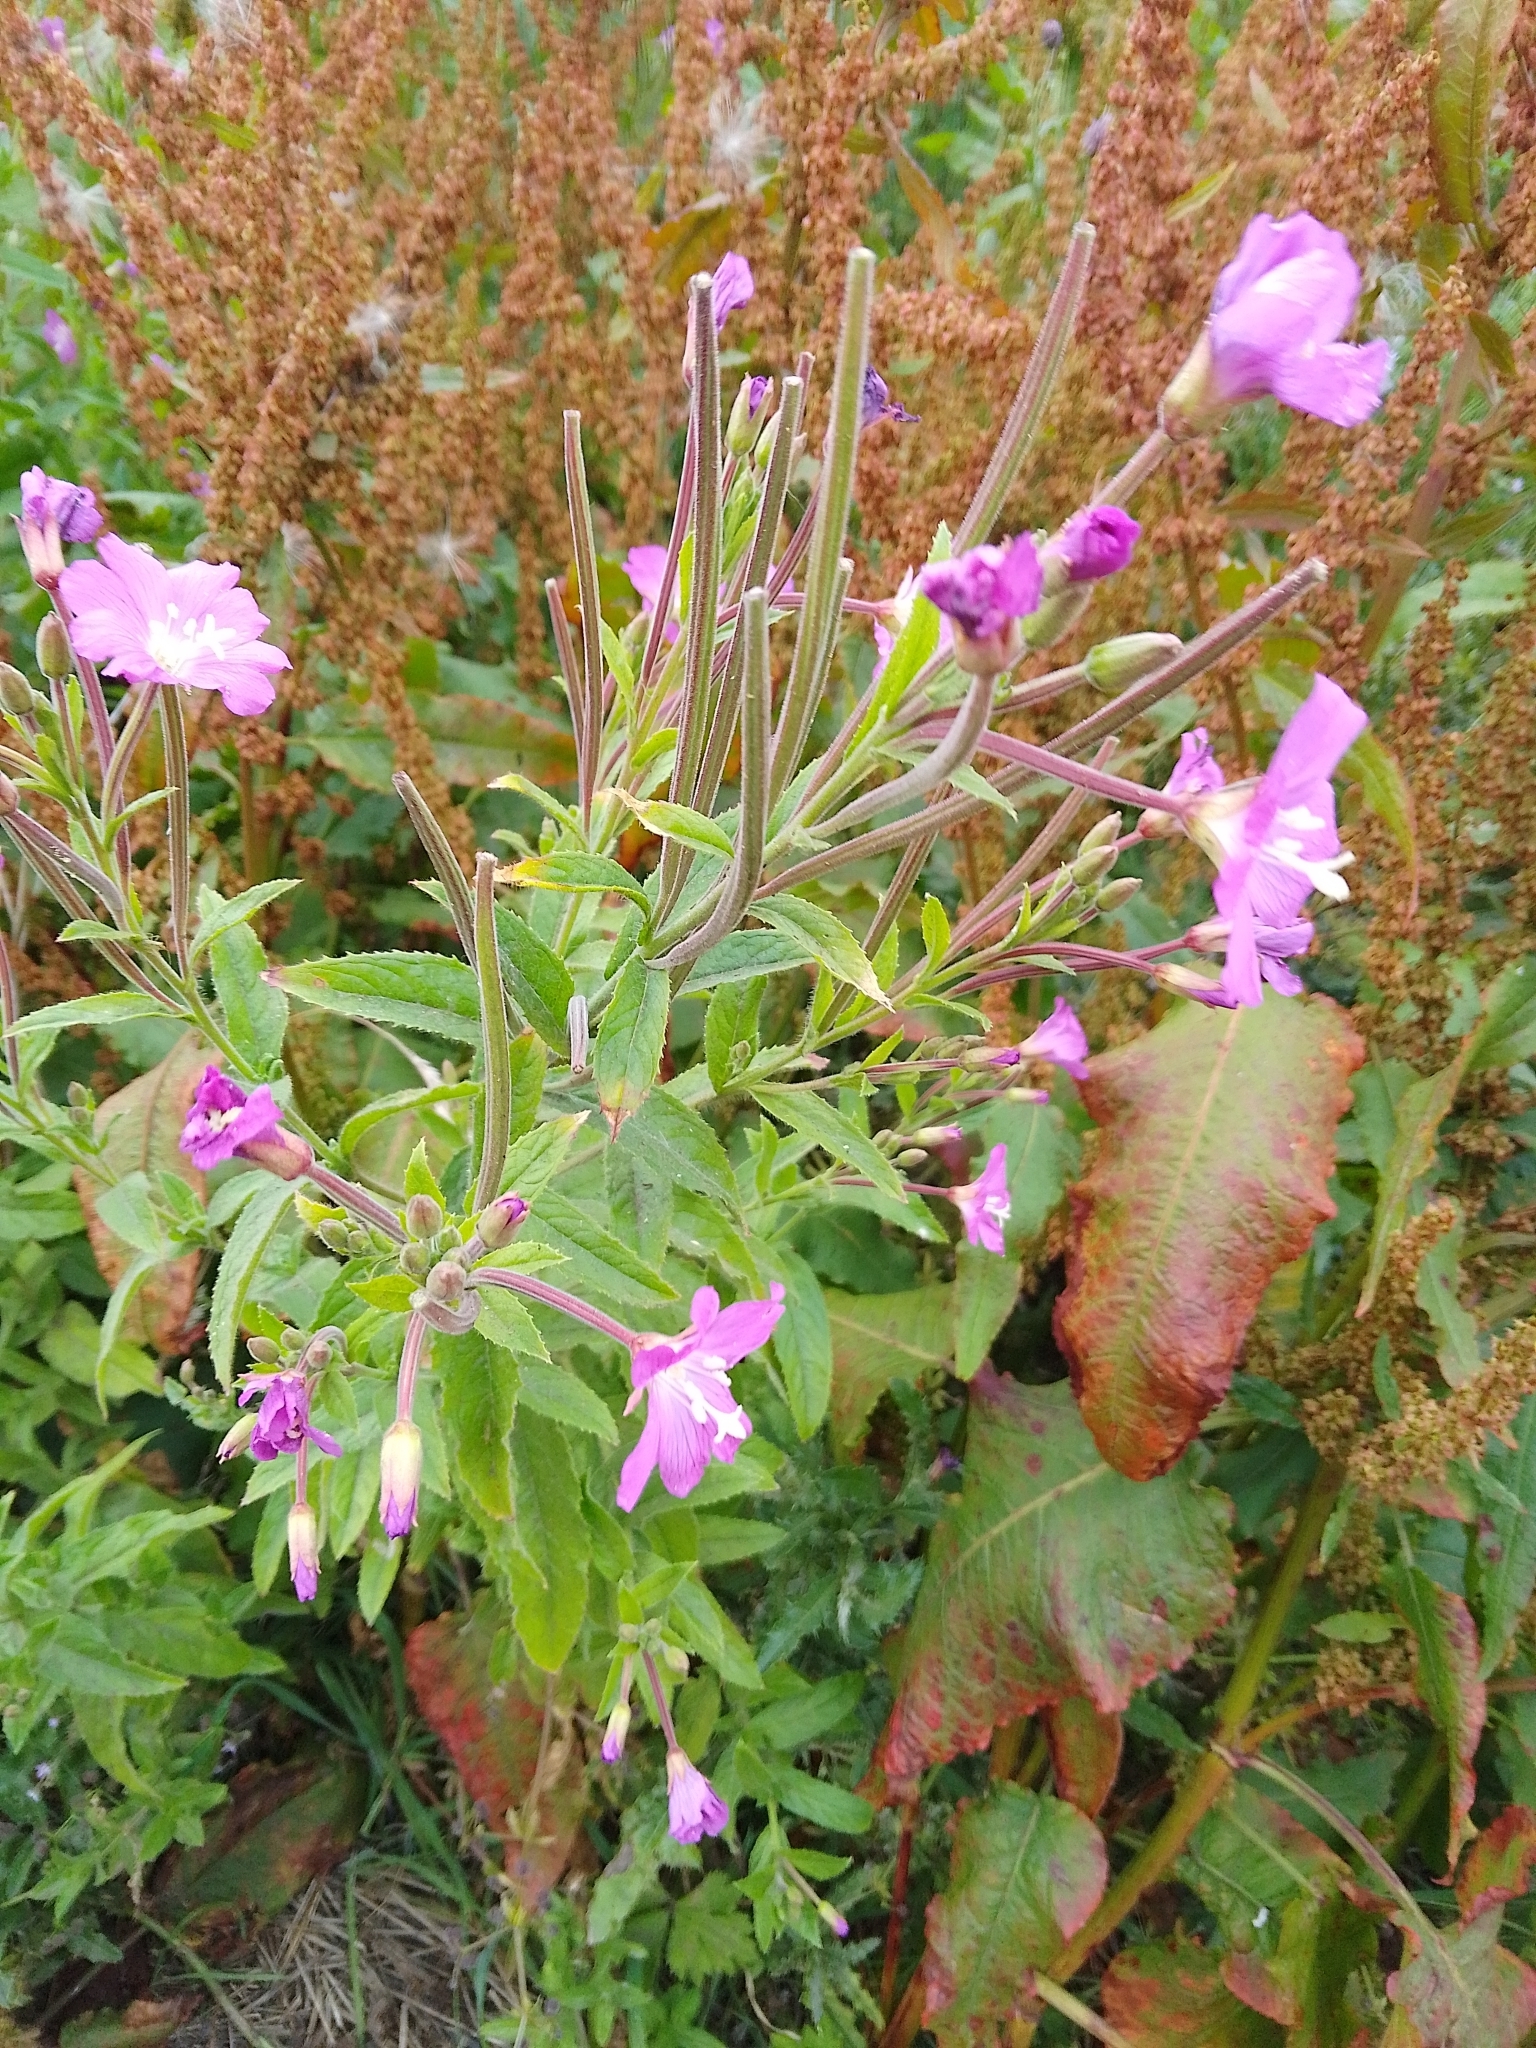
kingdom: Plantae
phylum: Tracheophyta
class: Magnoliopsida
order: Myrtales
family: Onagraceae
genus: Epilobium
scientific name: Epilobium hirsutum
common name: Great willowherb
